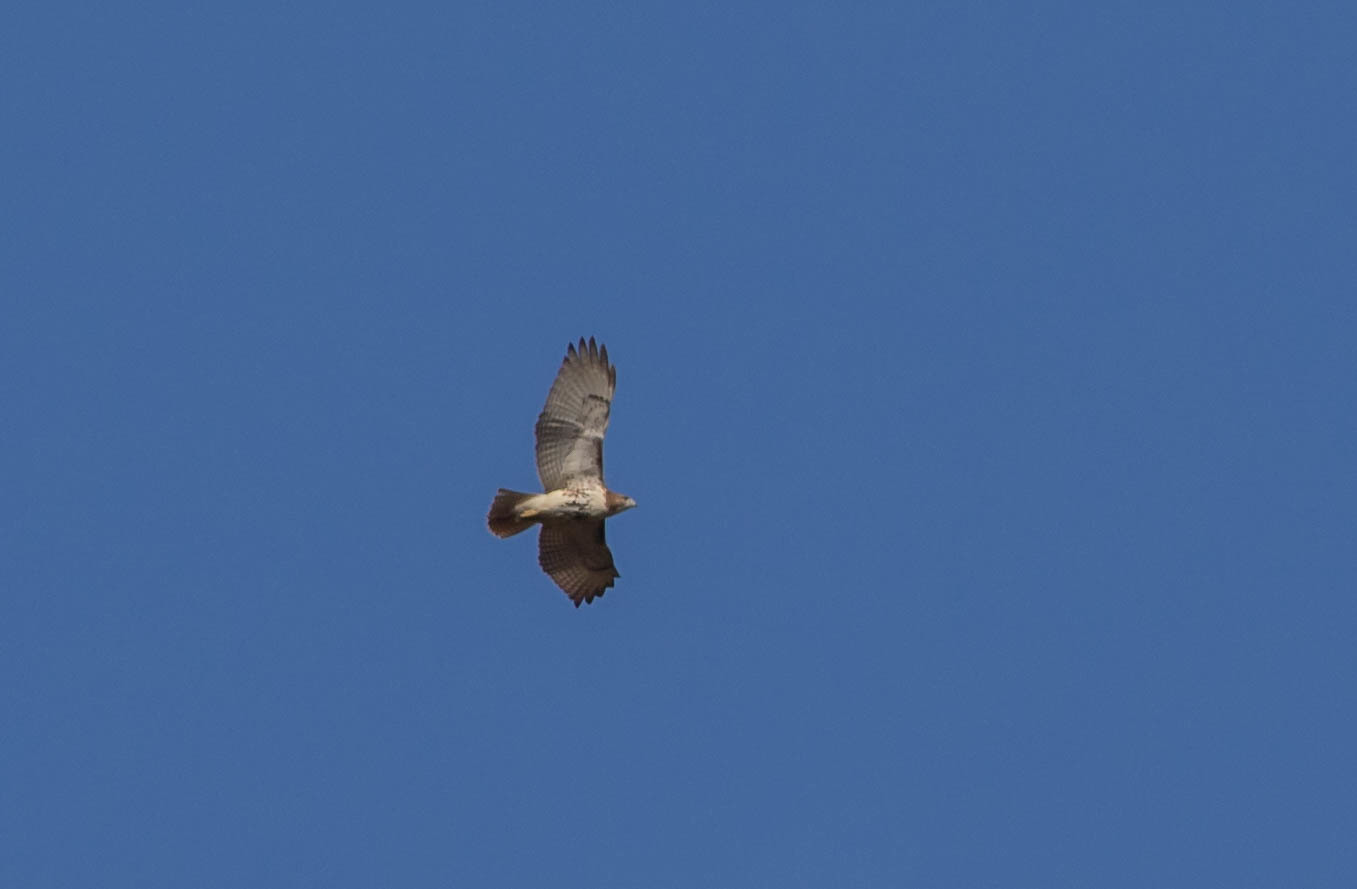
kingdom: Animalia
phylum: Chordata
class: Aves
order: Accipitriformes
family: Accipitridae
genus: Buteo
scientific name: Buteo jamaicensis
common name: Red-tailed hawk
